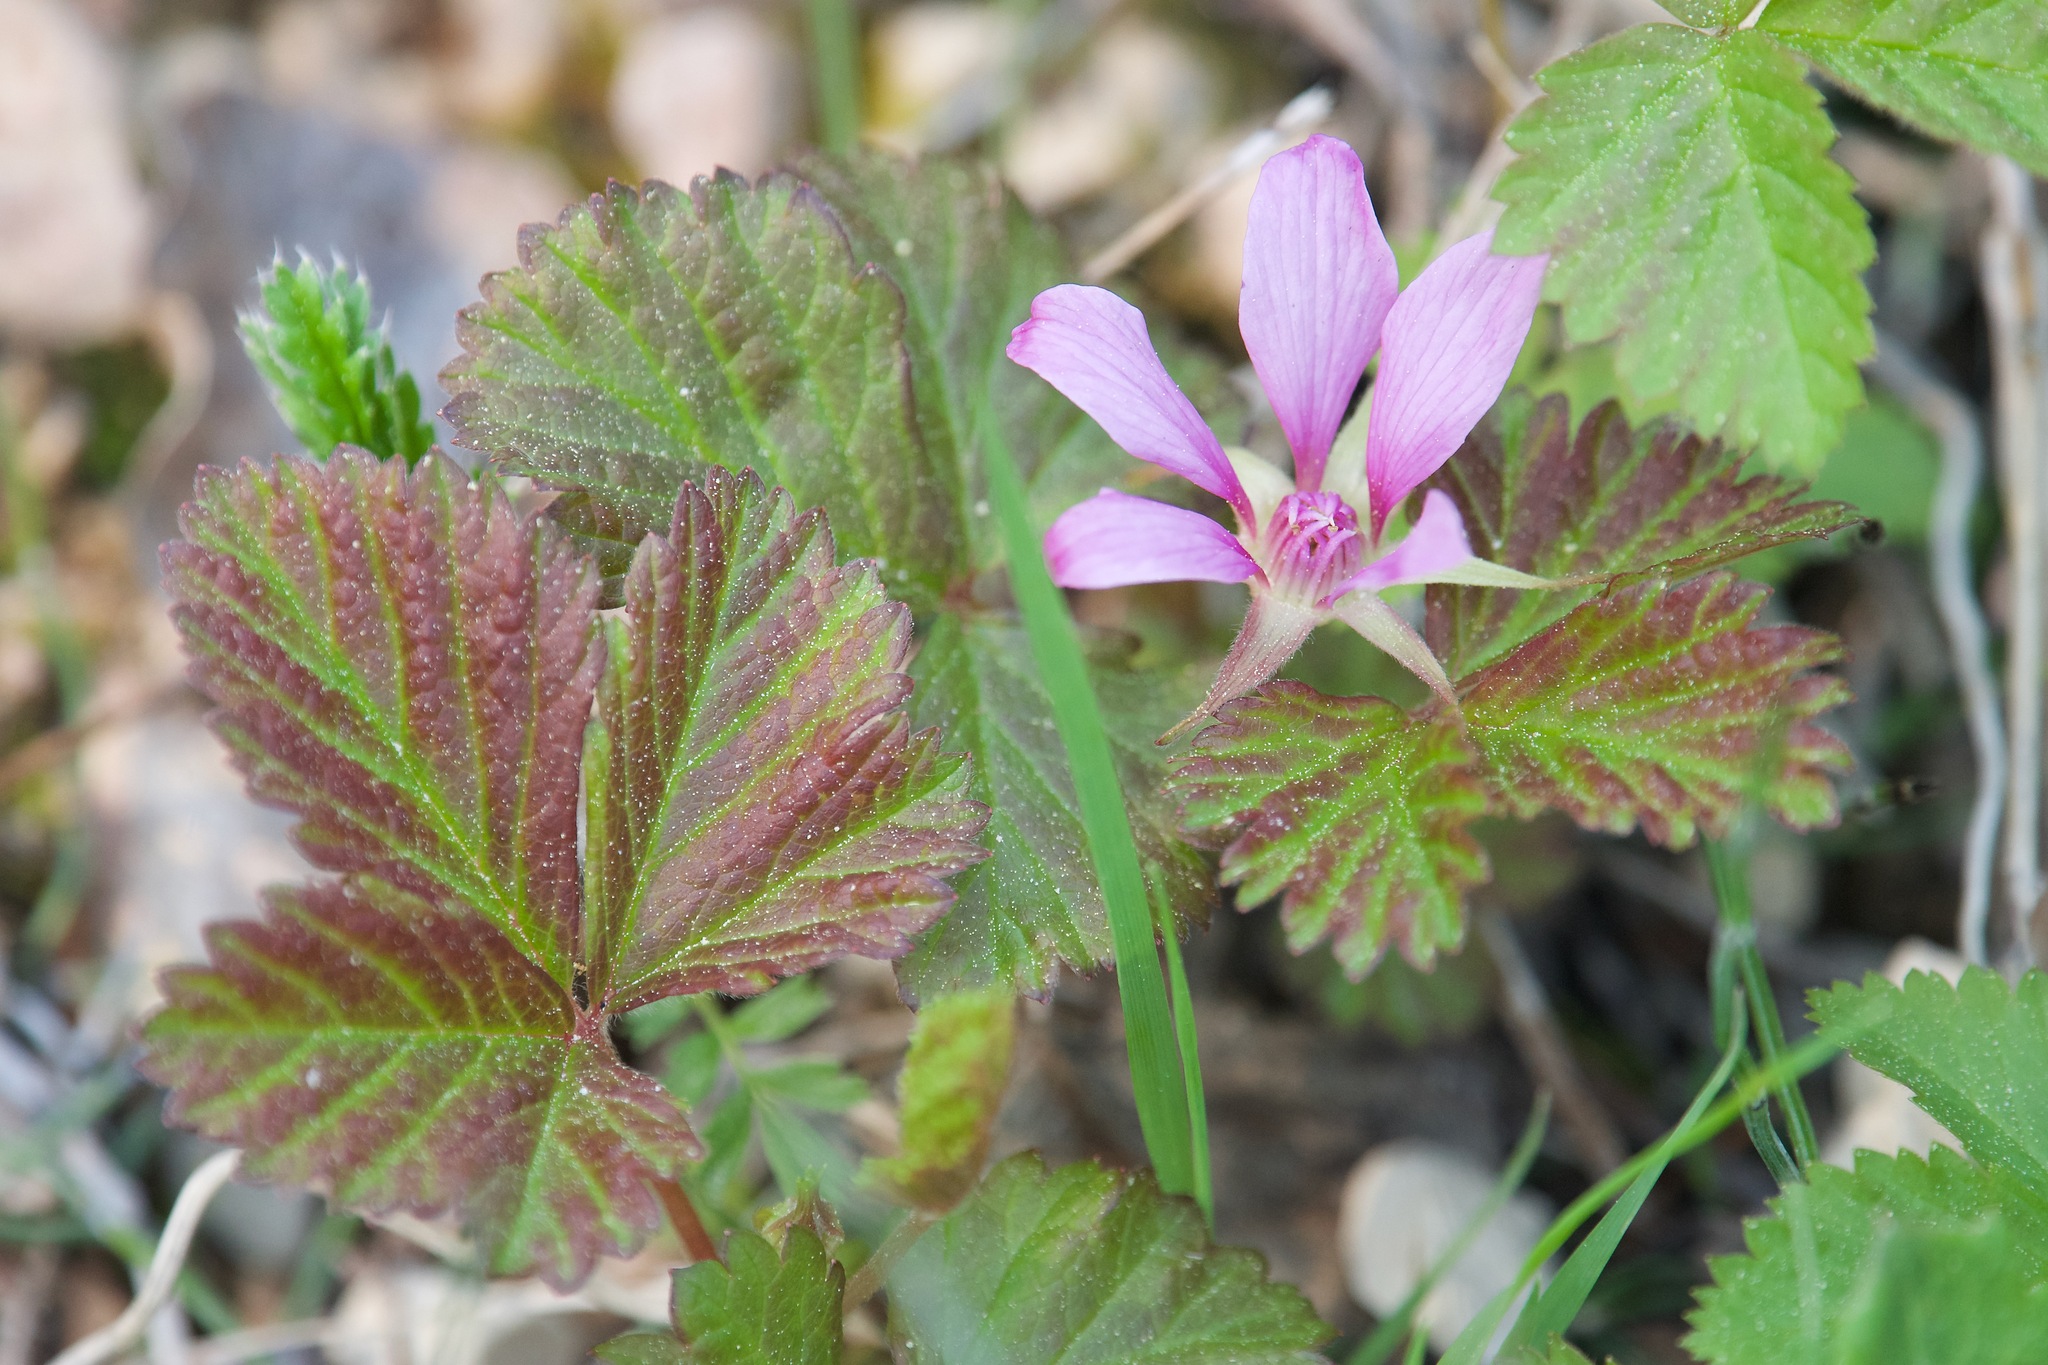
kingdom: Plantae
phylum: Tracheophyta
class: Magnoliopsida
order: Rosales
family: Rosaceae
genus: Rubus
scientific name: Rubus arcticus
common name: Arctic bramble
